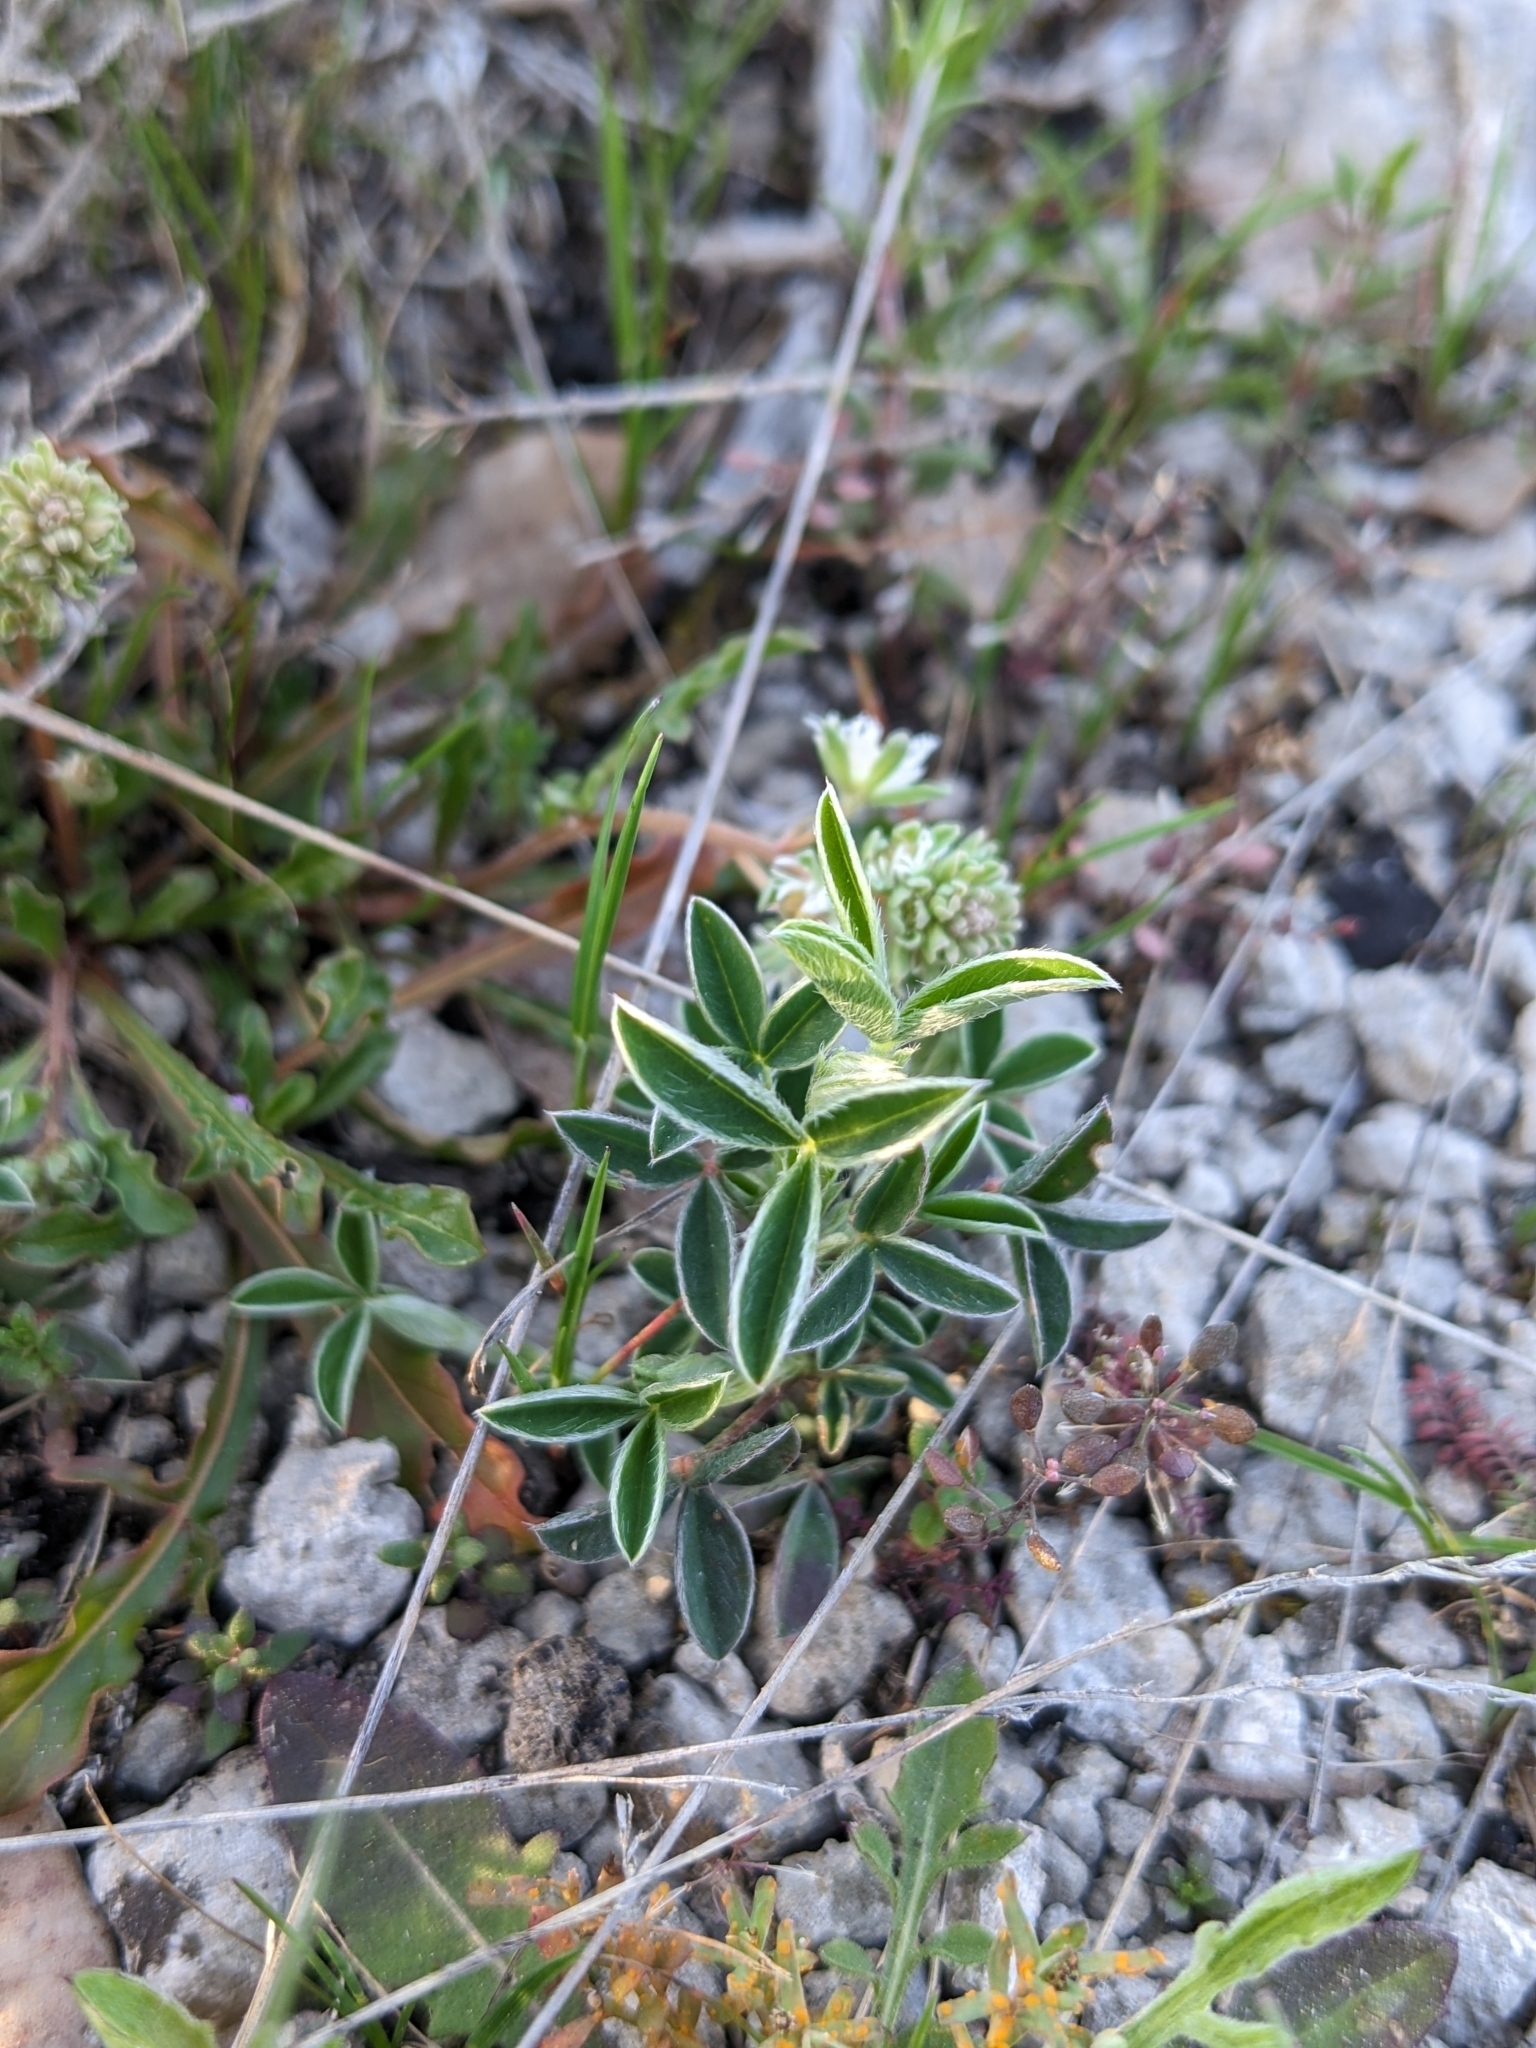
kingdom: Plantae
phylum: Tracheophyta
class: Magnoliopsida
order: Fabales
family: Fabaceae
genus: Argyrolobium
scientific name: Argyrolobium zanonii
